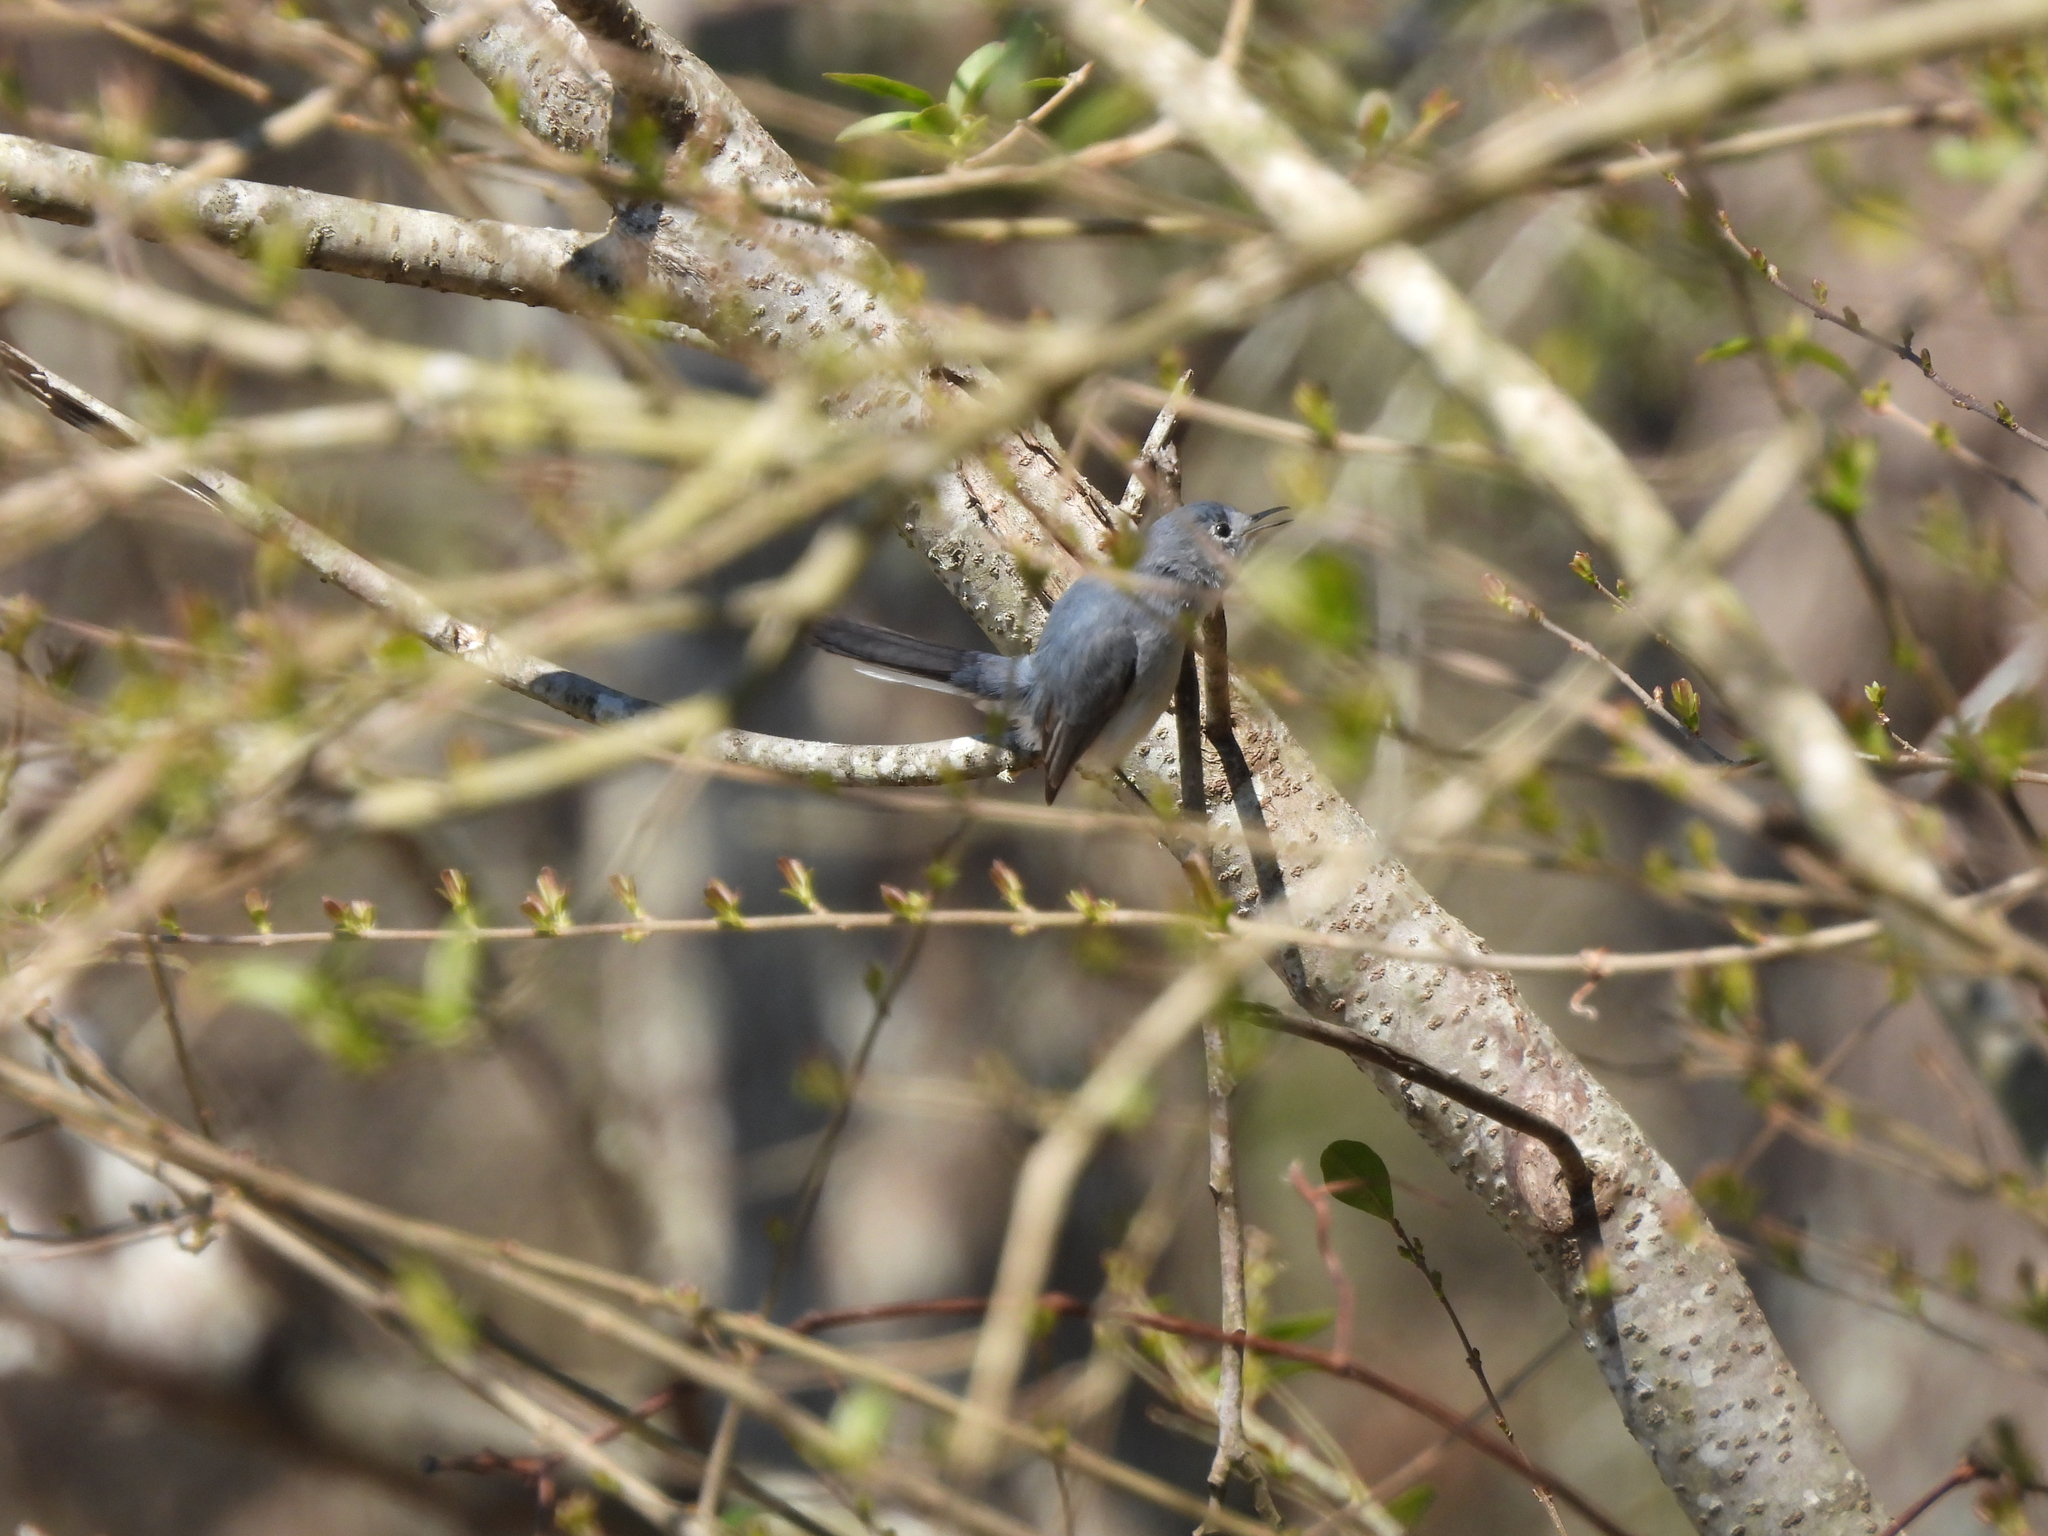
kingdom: Animalia
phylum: Chordata
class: Aves
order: Passeriformes
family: Polioptilidae
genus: Polioptila
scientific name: Polioptila caerulea
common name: Blue-gray gnatcatcher
